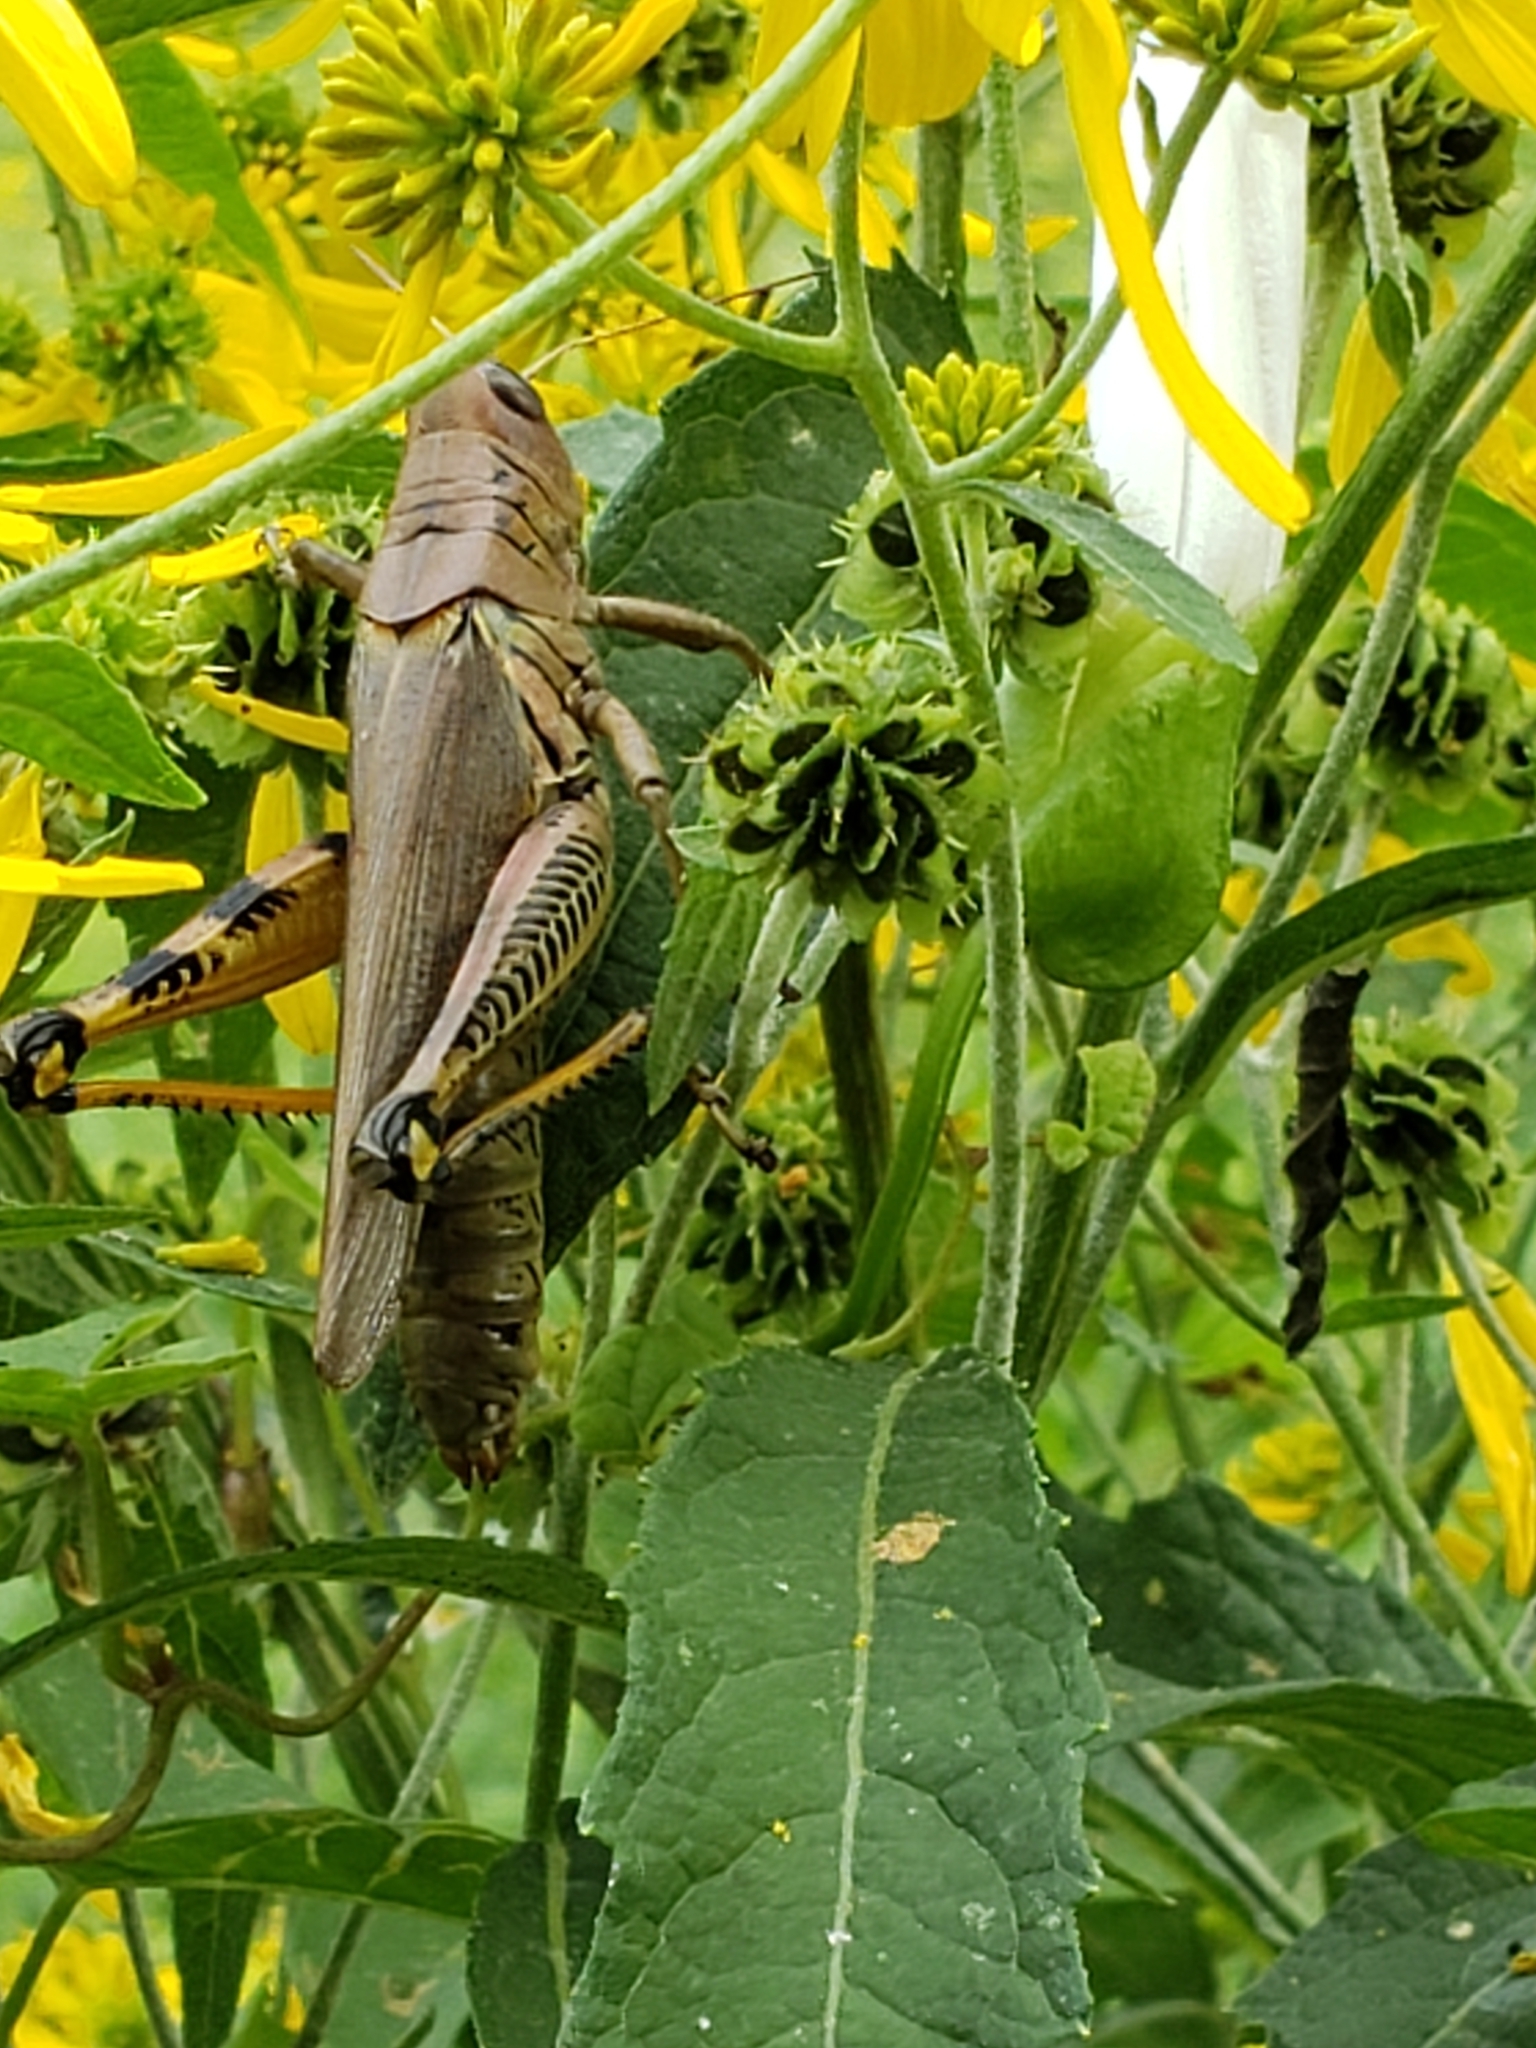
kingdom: Animalia
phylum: Arthropoda
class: Insecta
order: Orthoptera
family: Acrididae
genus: Melanoplus
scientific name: Melanoplus differentialis
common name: Differential grasshopper
